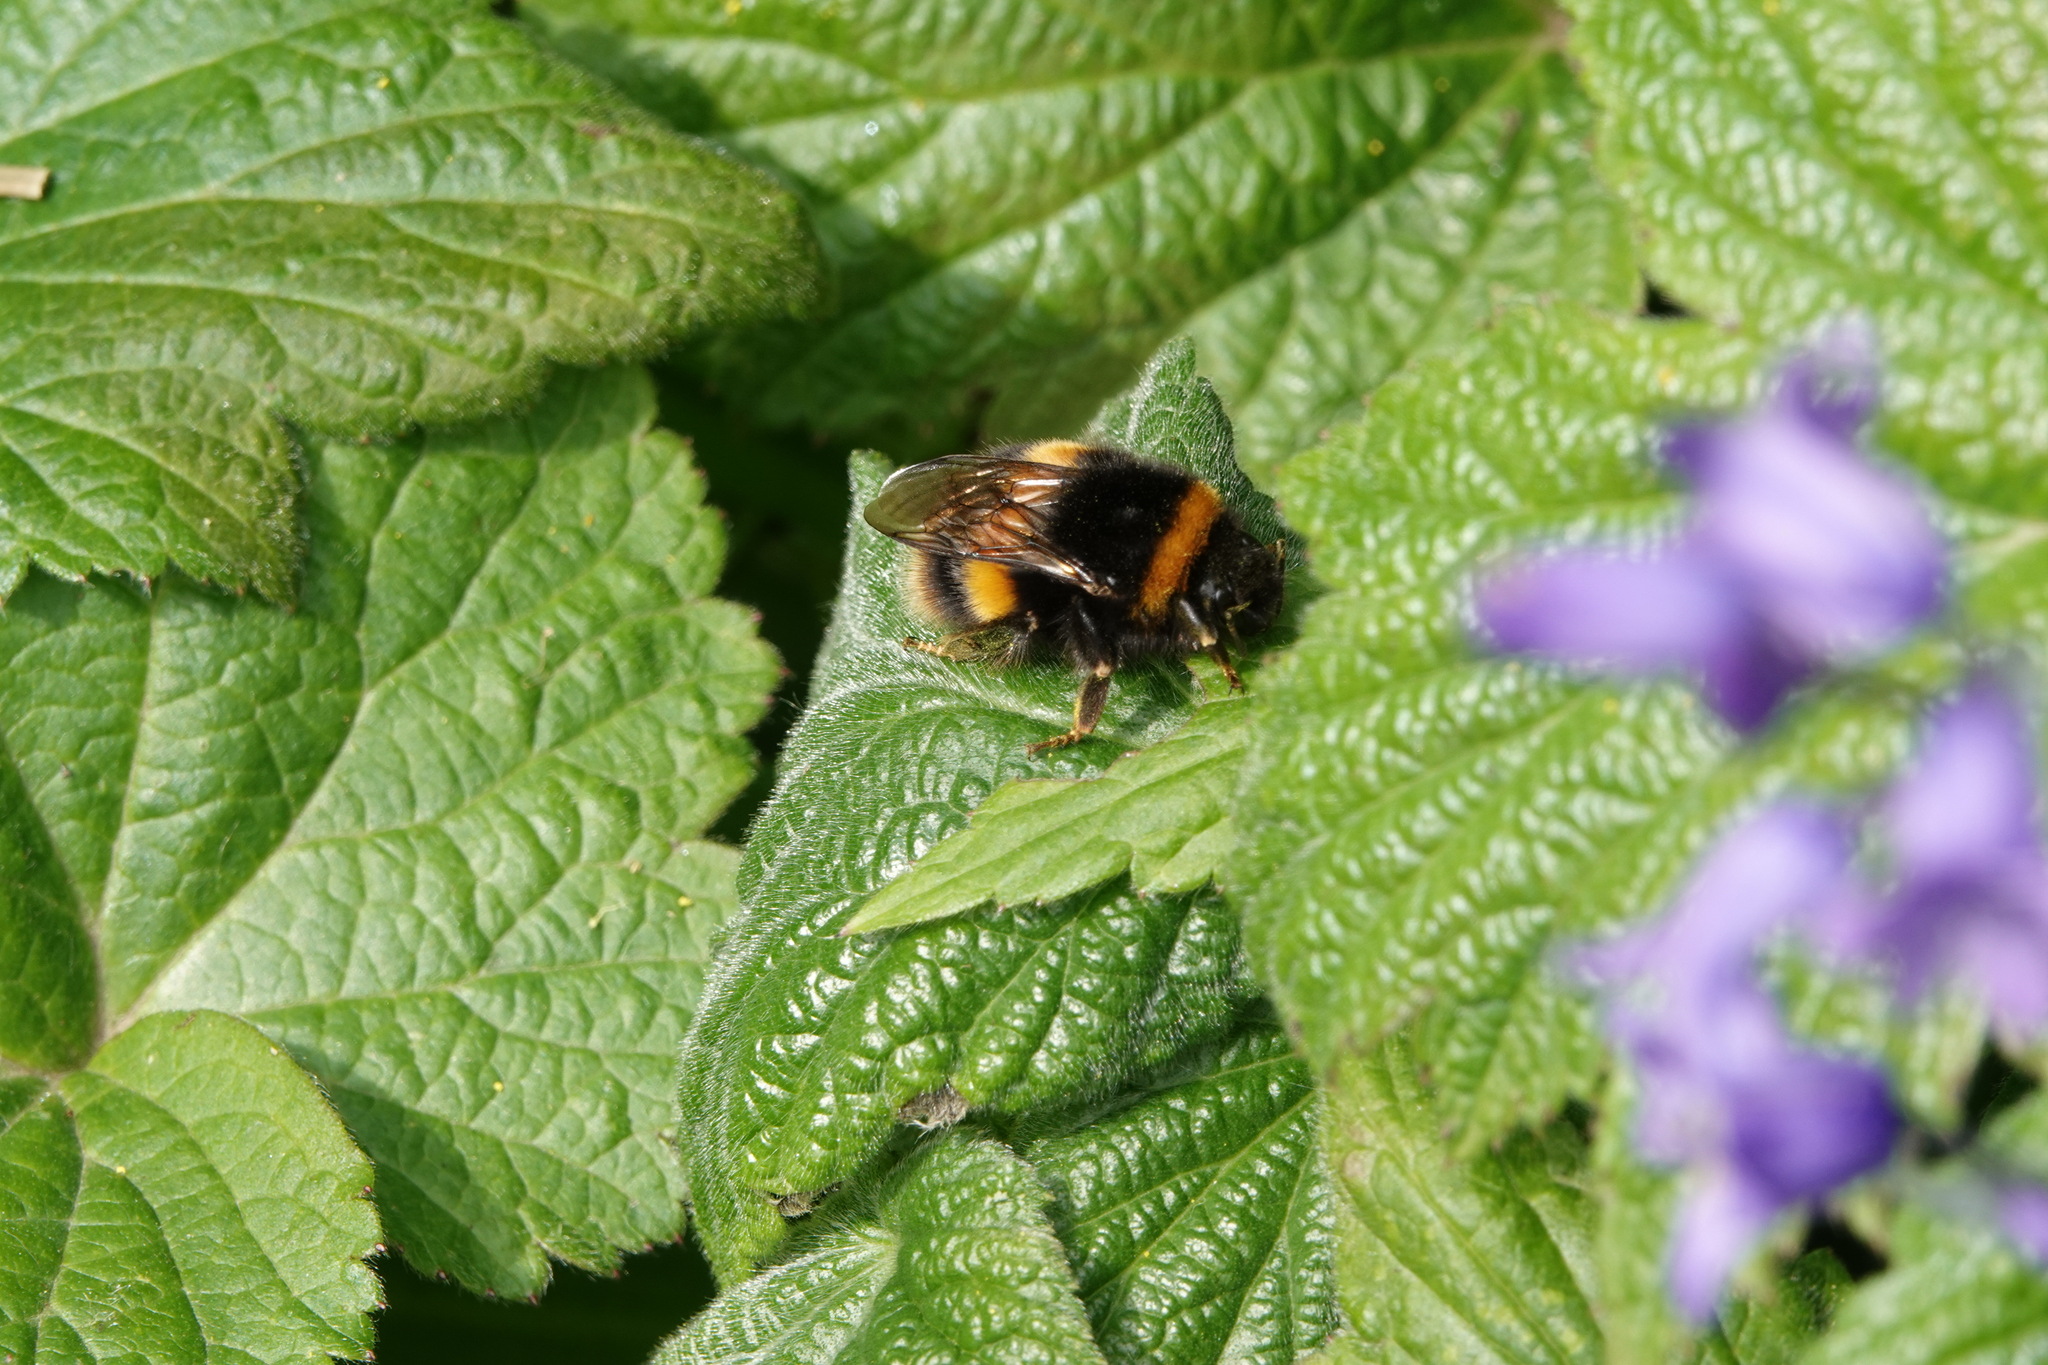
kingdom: Animalia
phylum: Arthropoda
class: Insecta
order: Hymenoptera
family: Apidae
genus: Bombus
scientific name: Bombus terrestris
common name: Buff-tailed bumblebee
